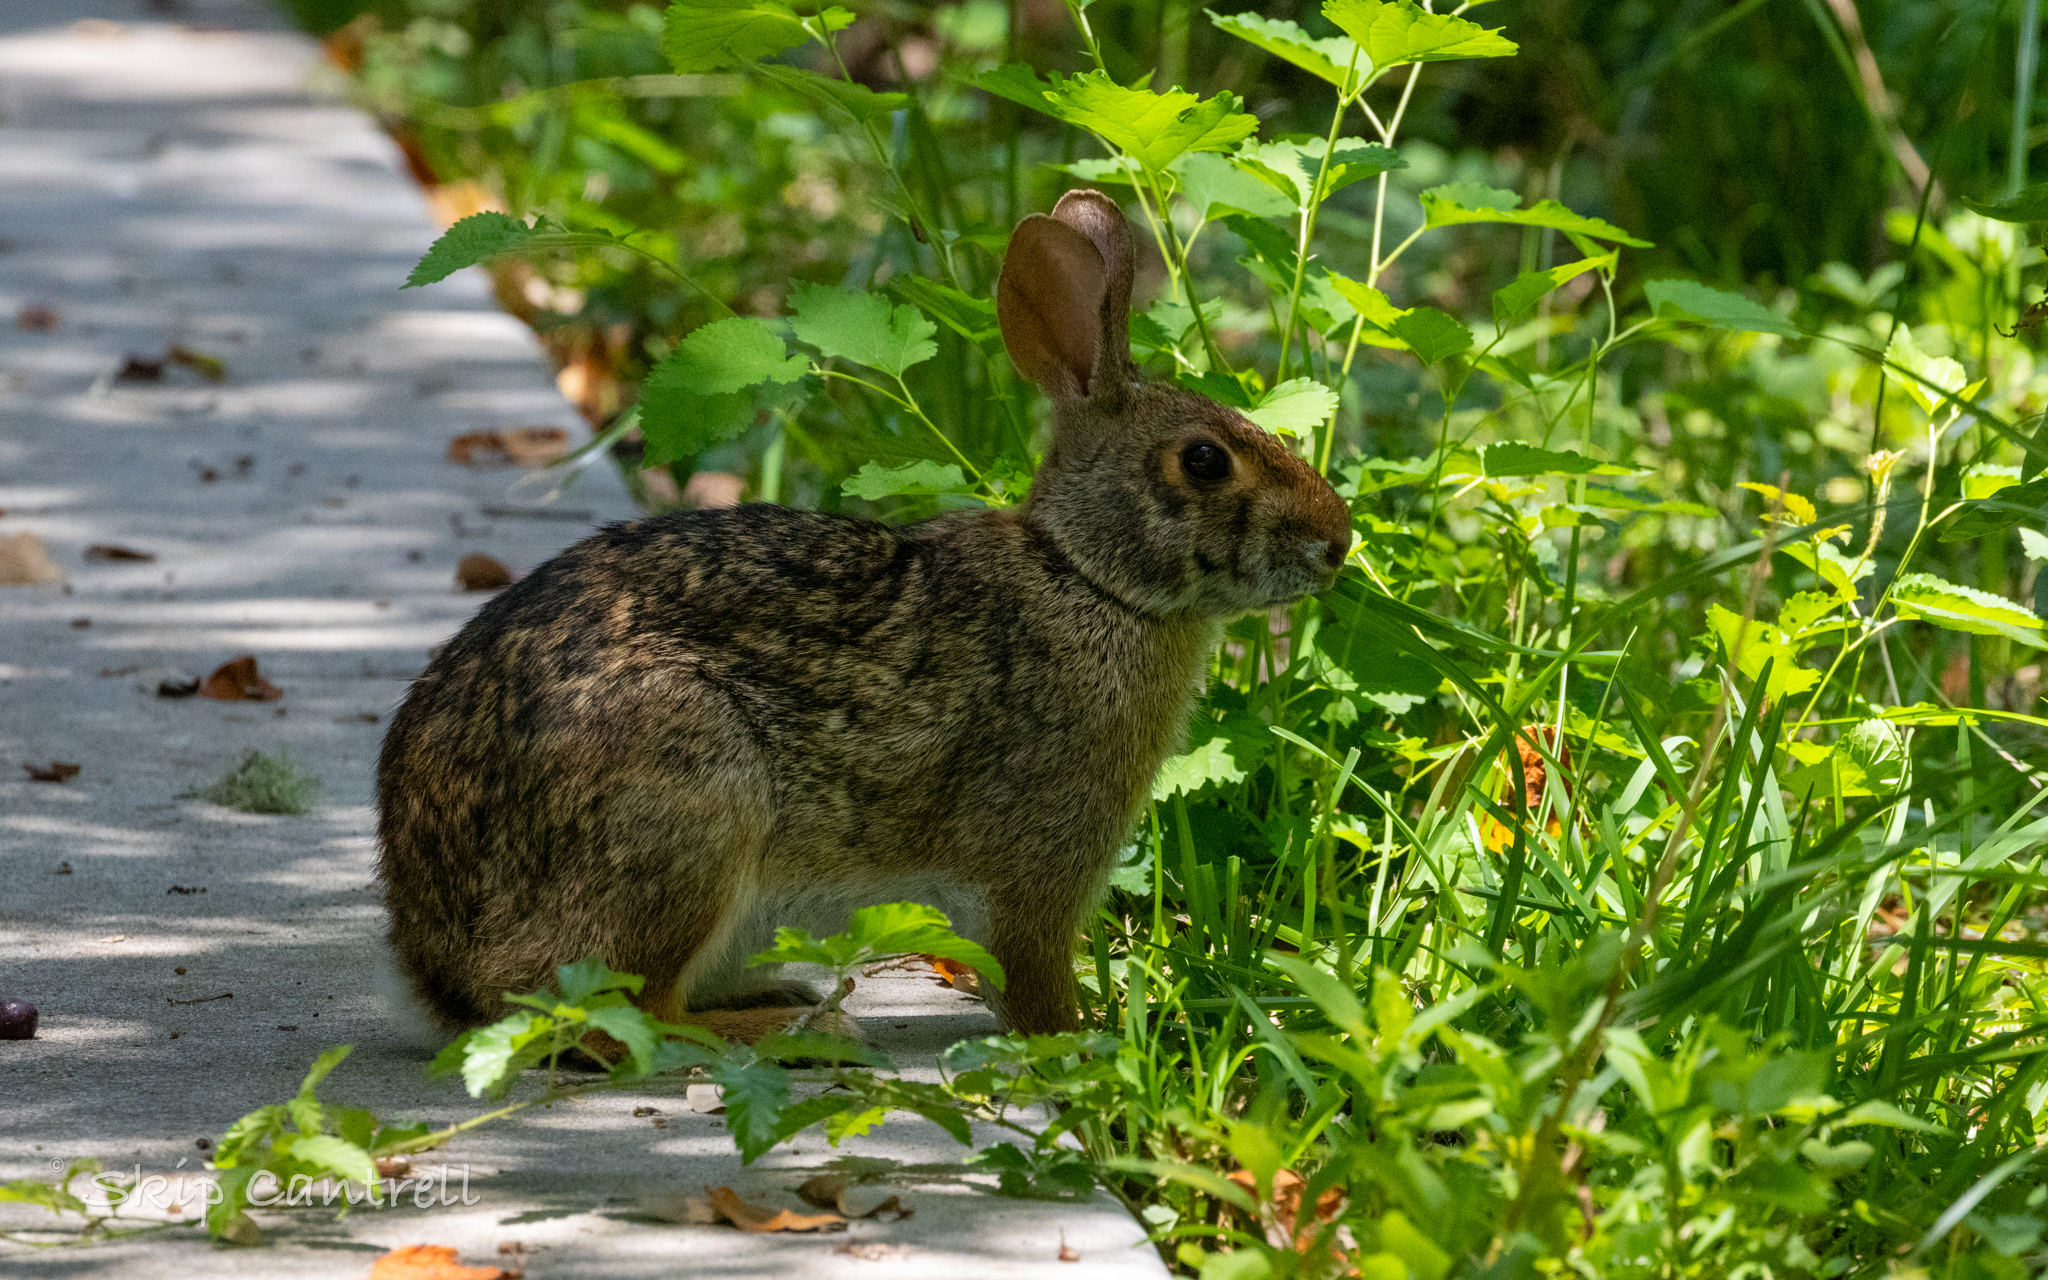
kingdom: Animalia
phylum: Chordata
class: Mammalia
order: Lagomorpha
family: Leporidae
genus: Sylvilagus
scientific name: Sylvilagus aquaticus
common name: Swamp rabbit
